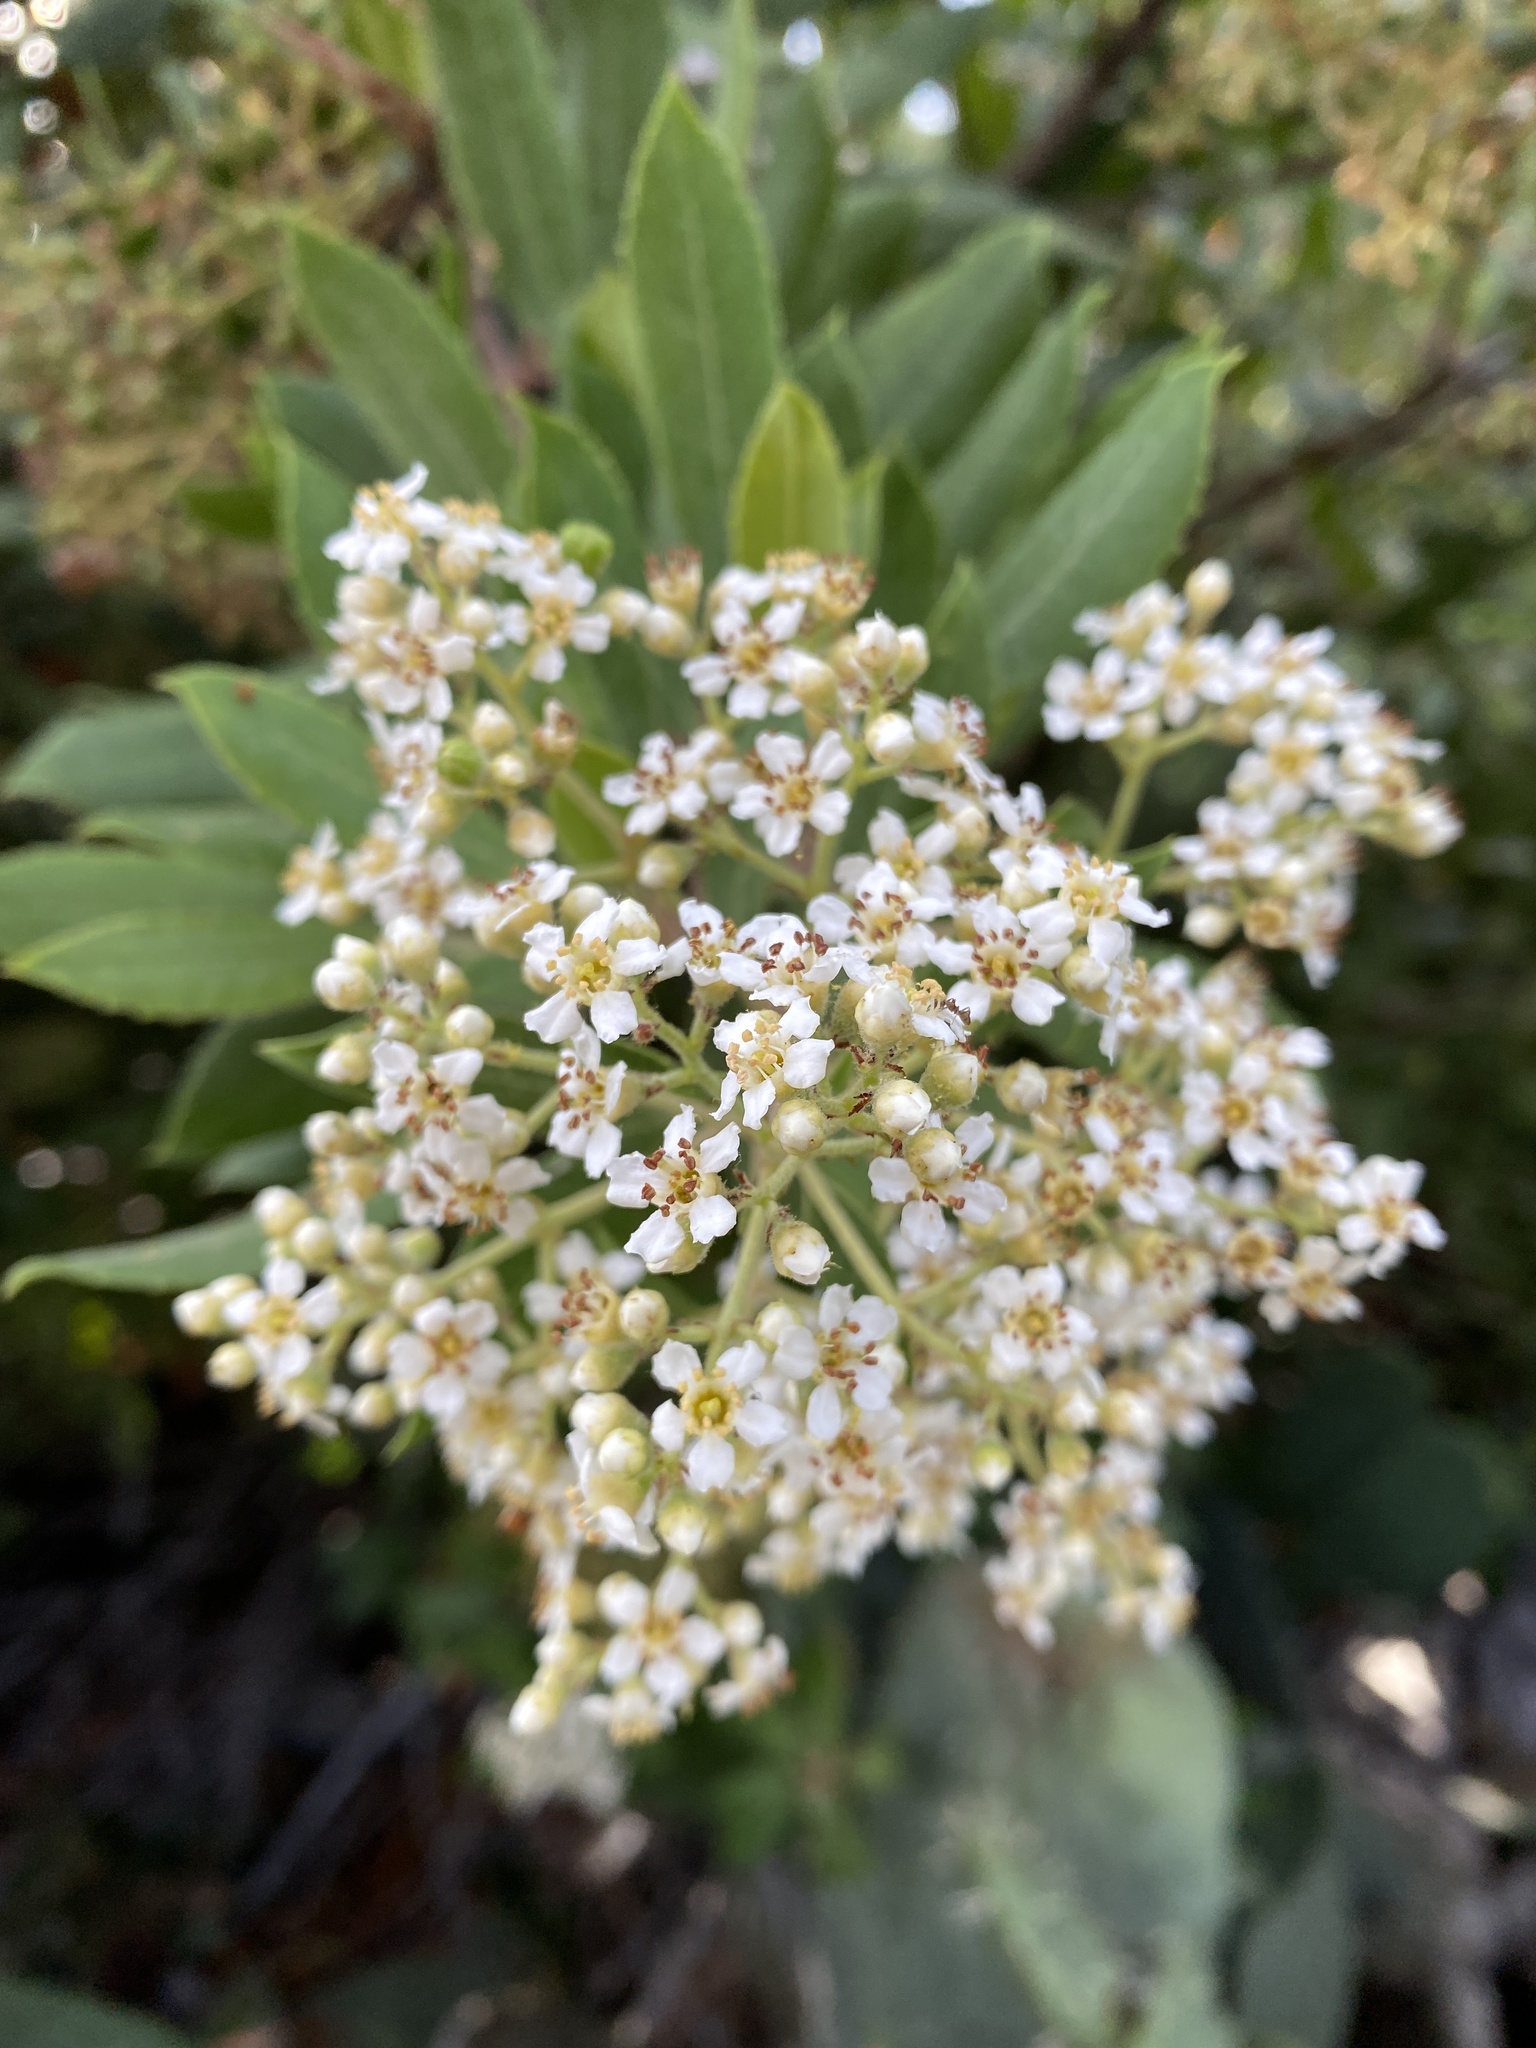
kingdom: Plantae
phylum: Tracheophyta
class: Magnoliopsida
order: Rosales
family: Rosaceae
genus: Heteromeles
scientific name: Heteromeles arbutifolia
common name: California-holly
